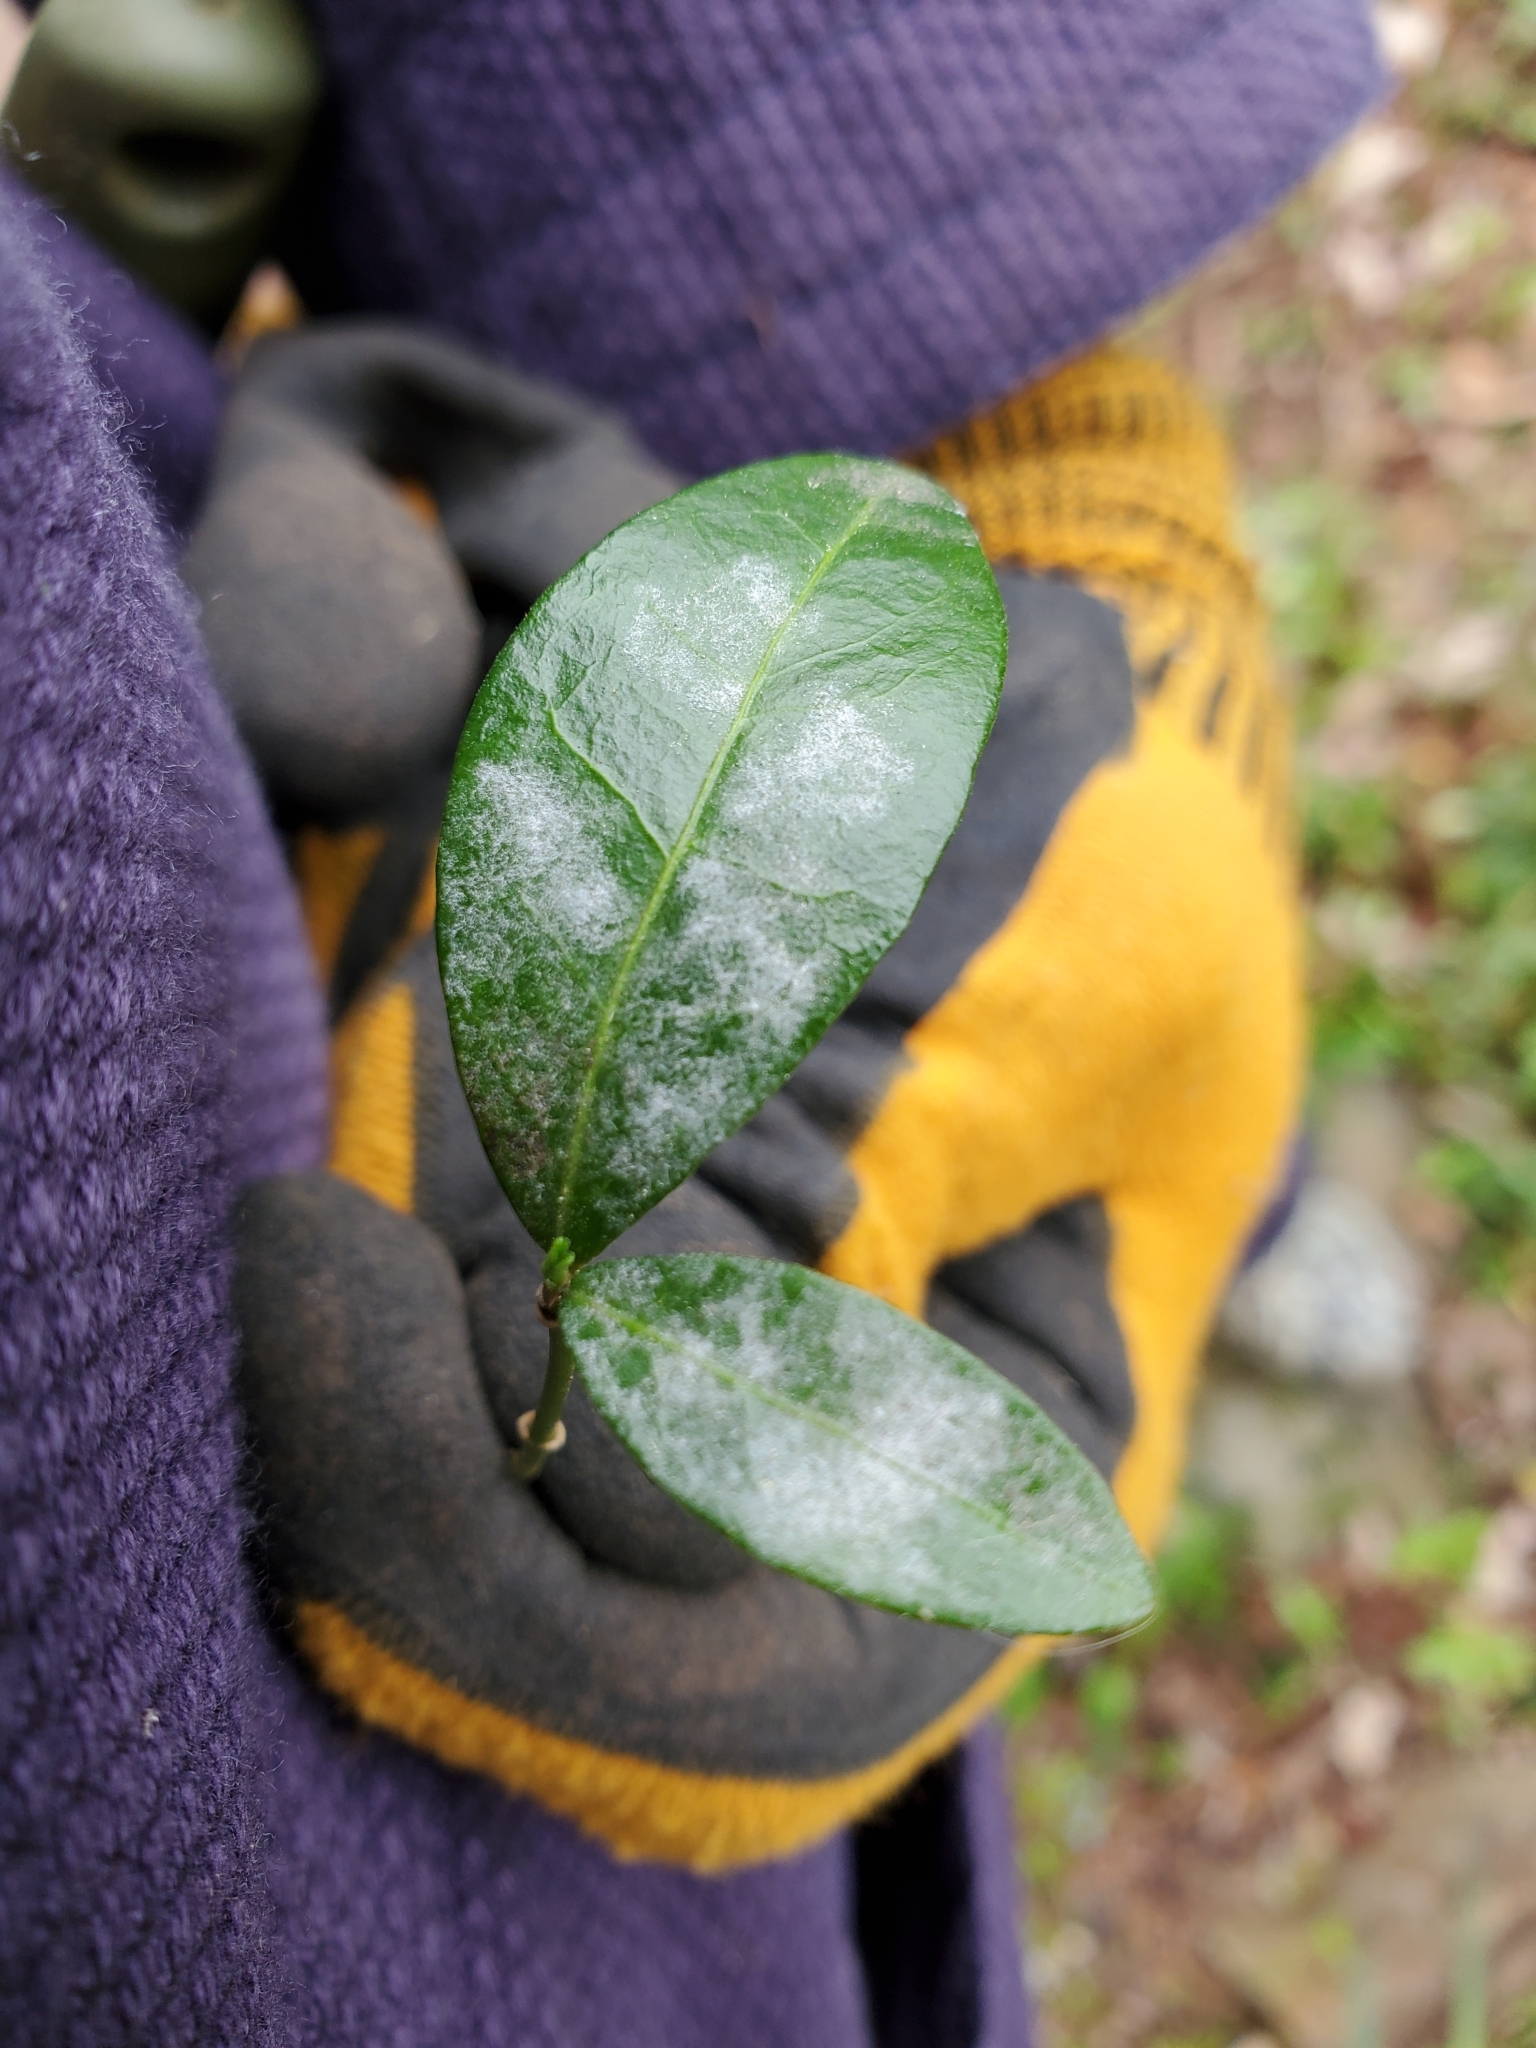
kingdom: Plantae
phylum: Tracheophyta
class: Magnoliopsida
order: Gentianales
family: Apocynaceae
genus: Vinca
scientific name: Vinca minor
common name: Lesser periwinkle
